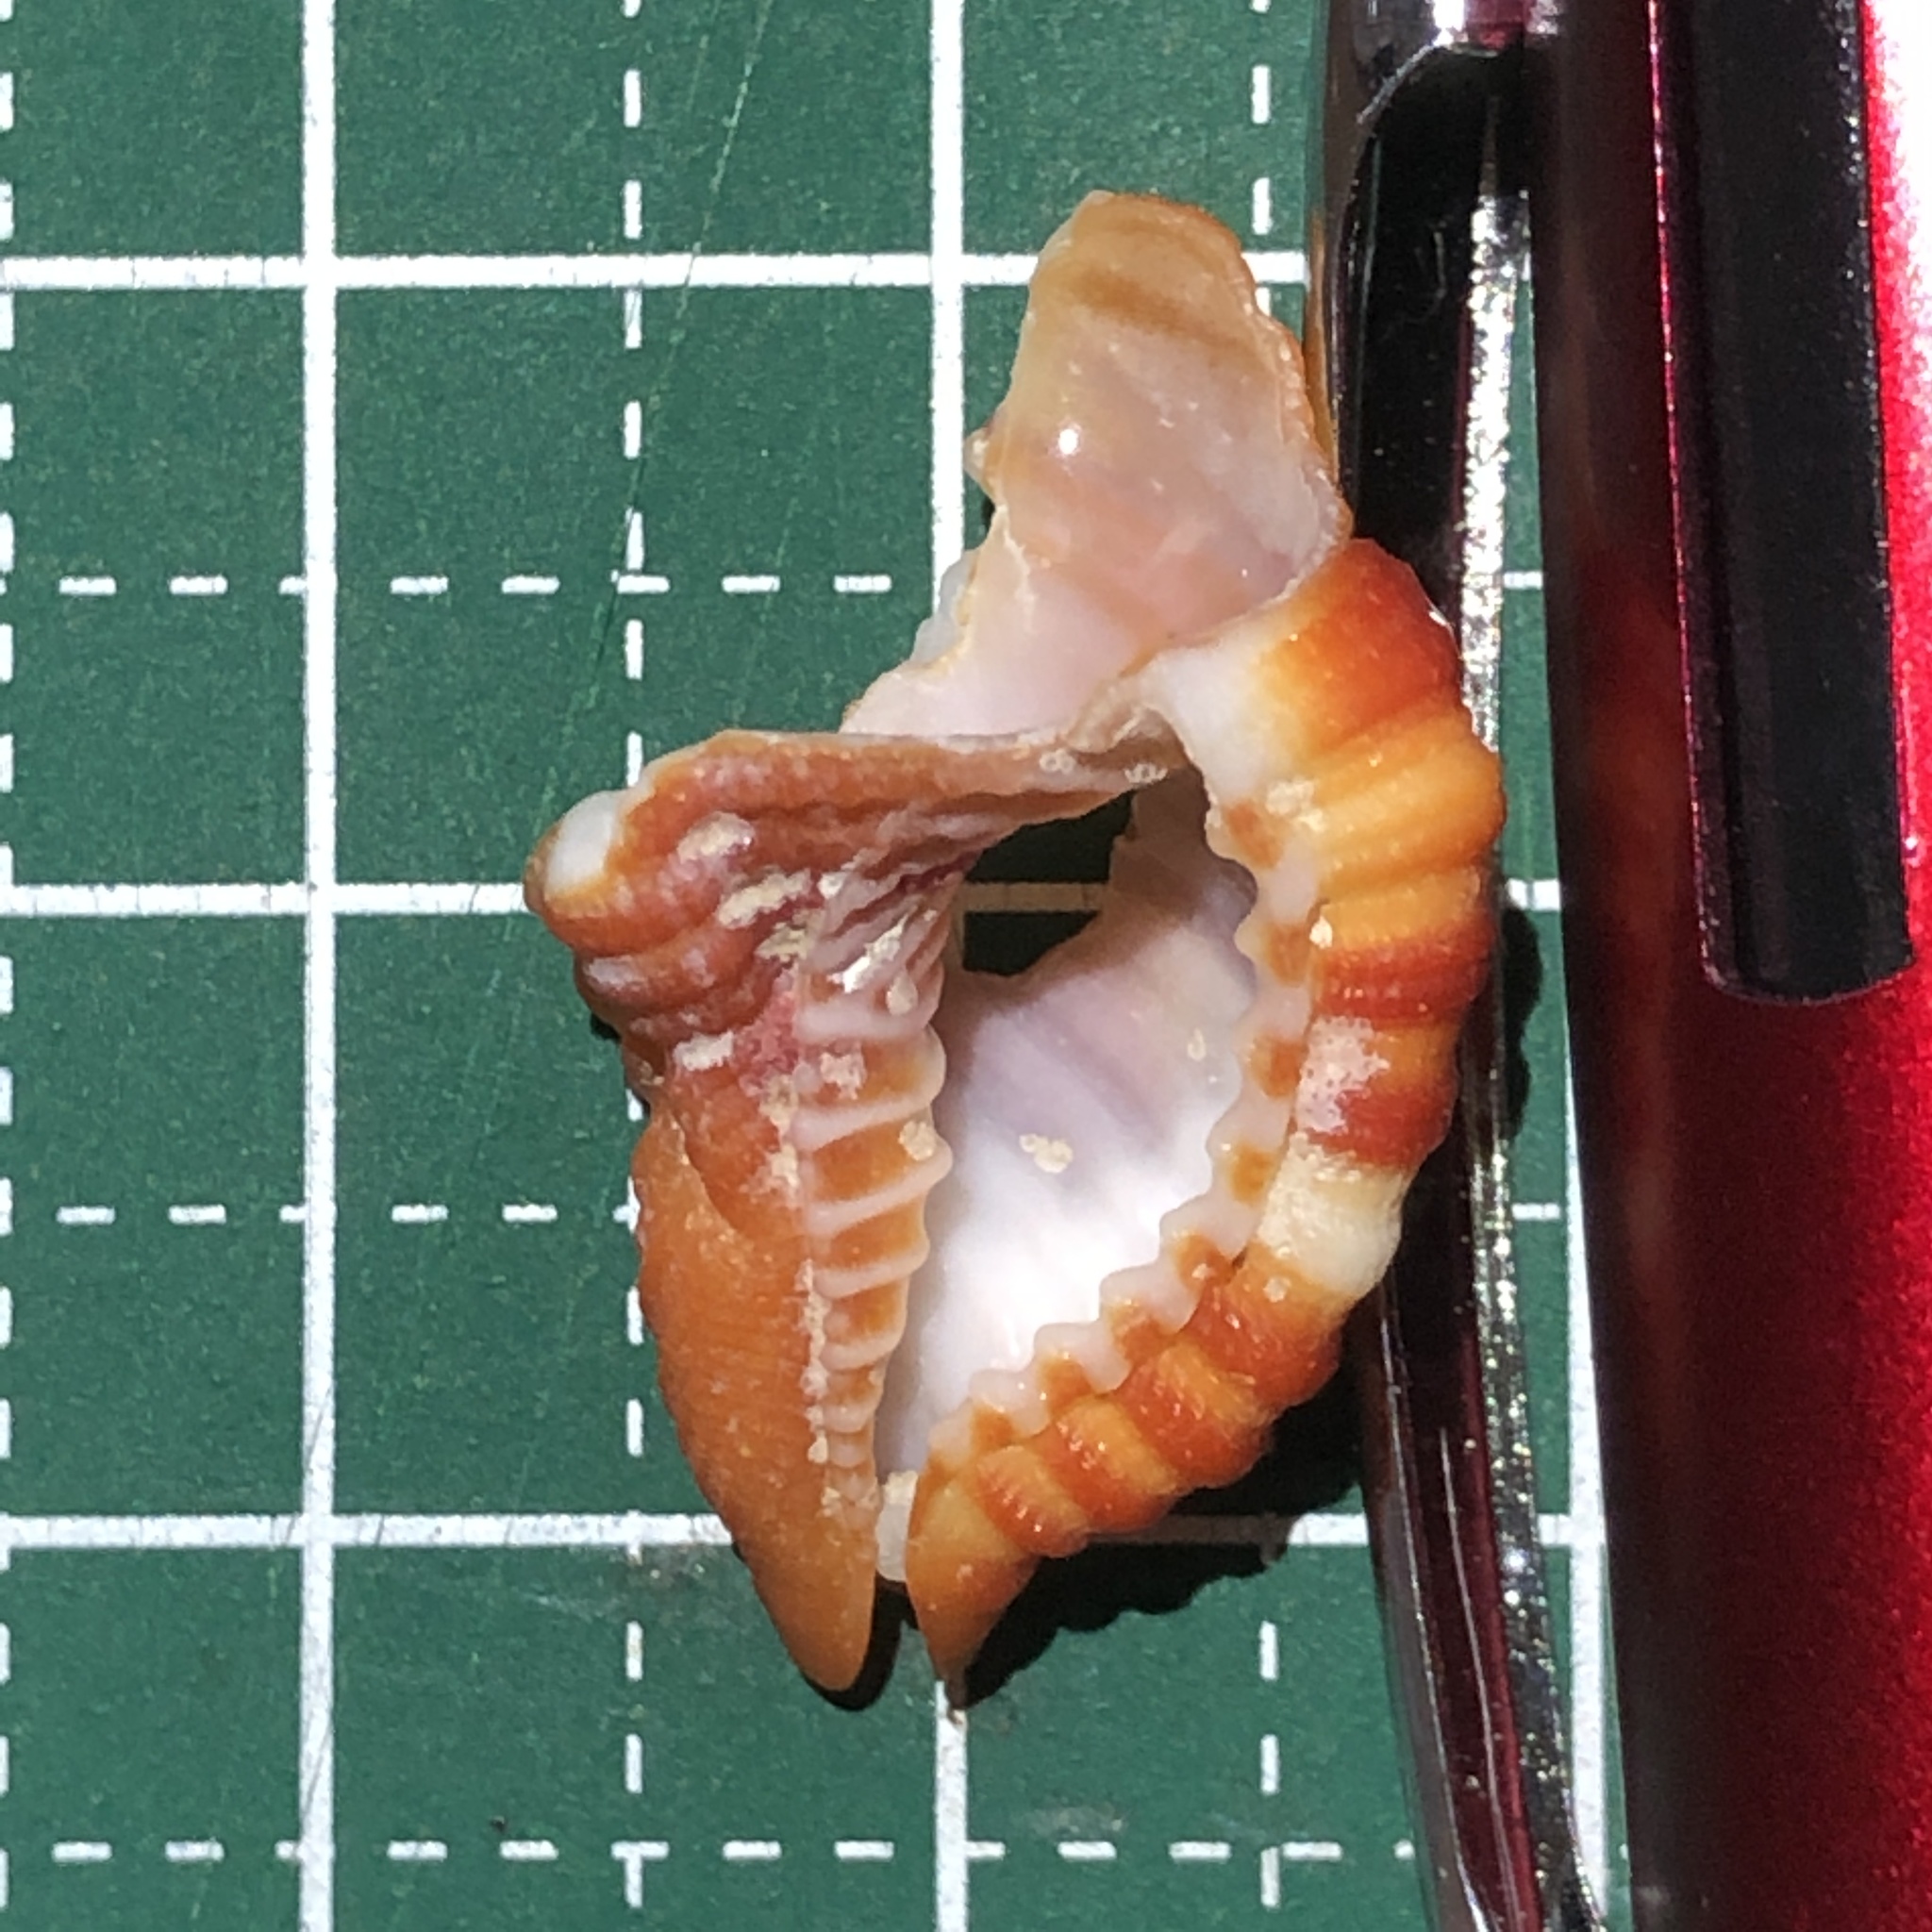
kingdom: Animalia
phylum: Mollusca
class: Gastropoda
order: Littorinimorpha
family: Cymatiidae
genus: Septa
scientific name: Septa rubecula
